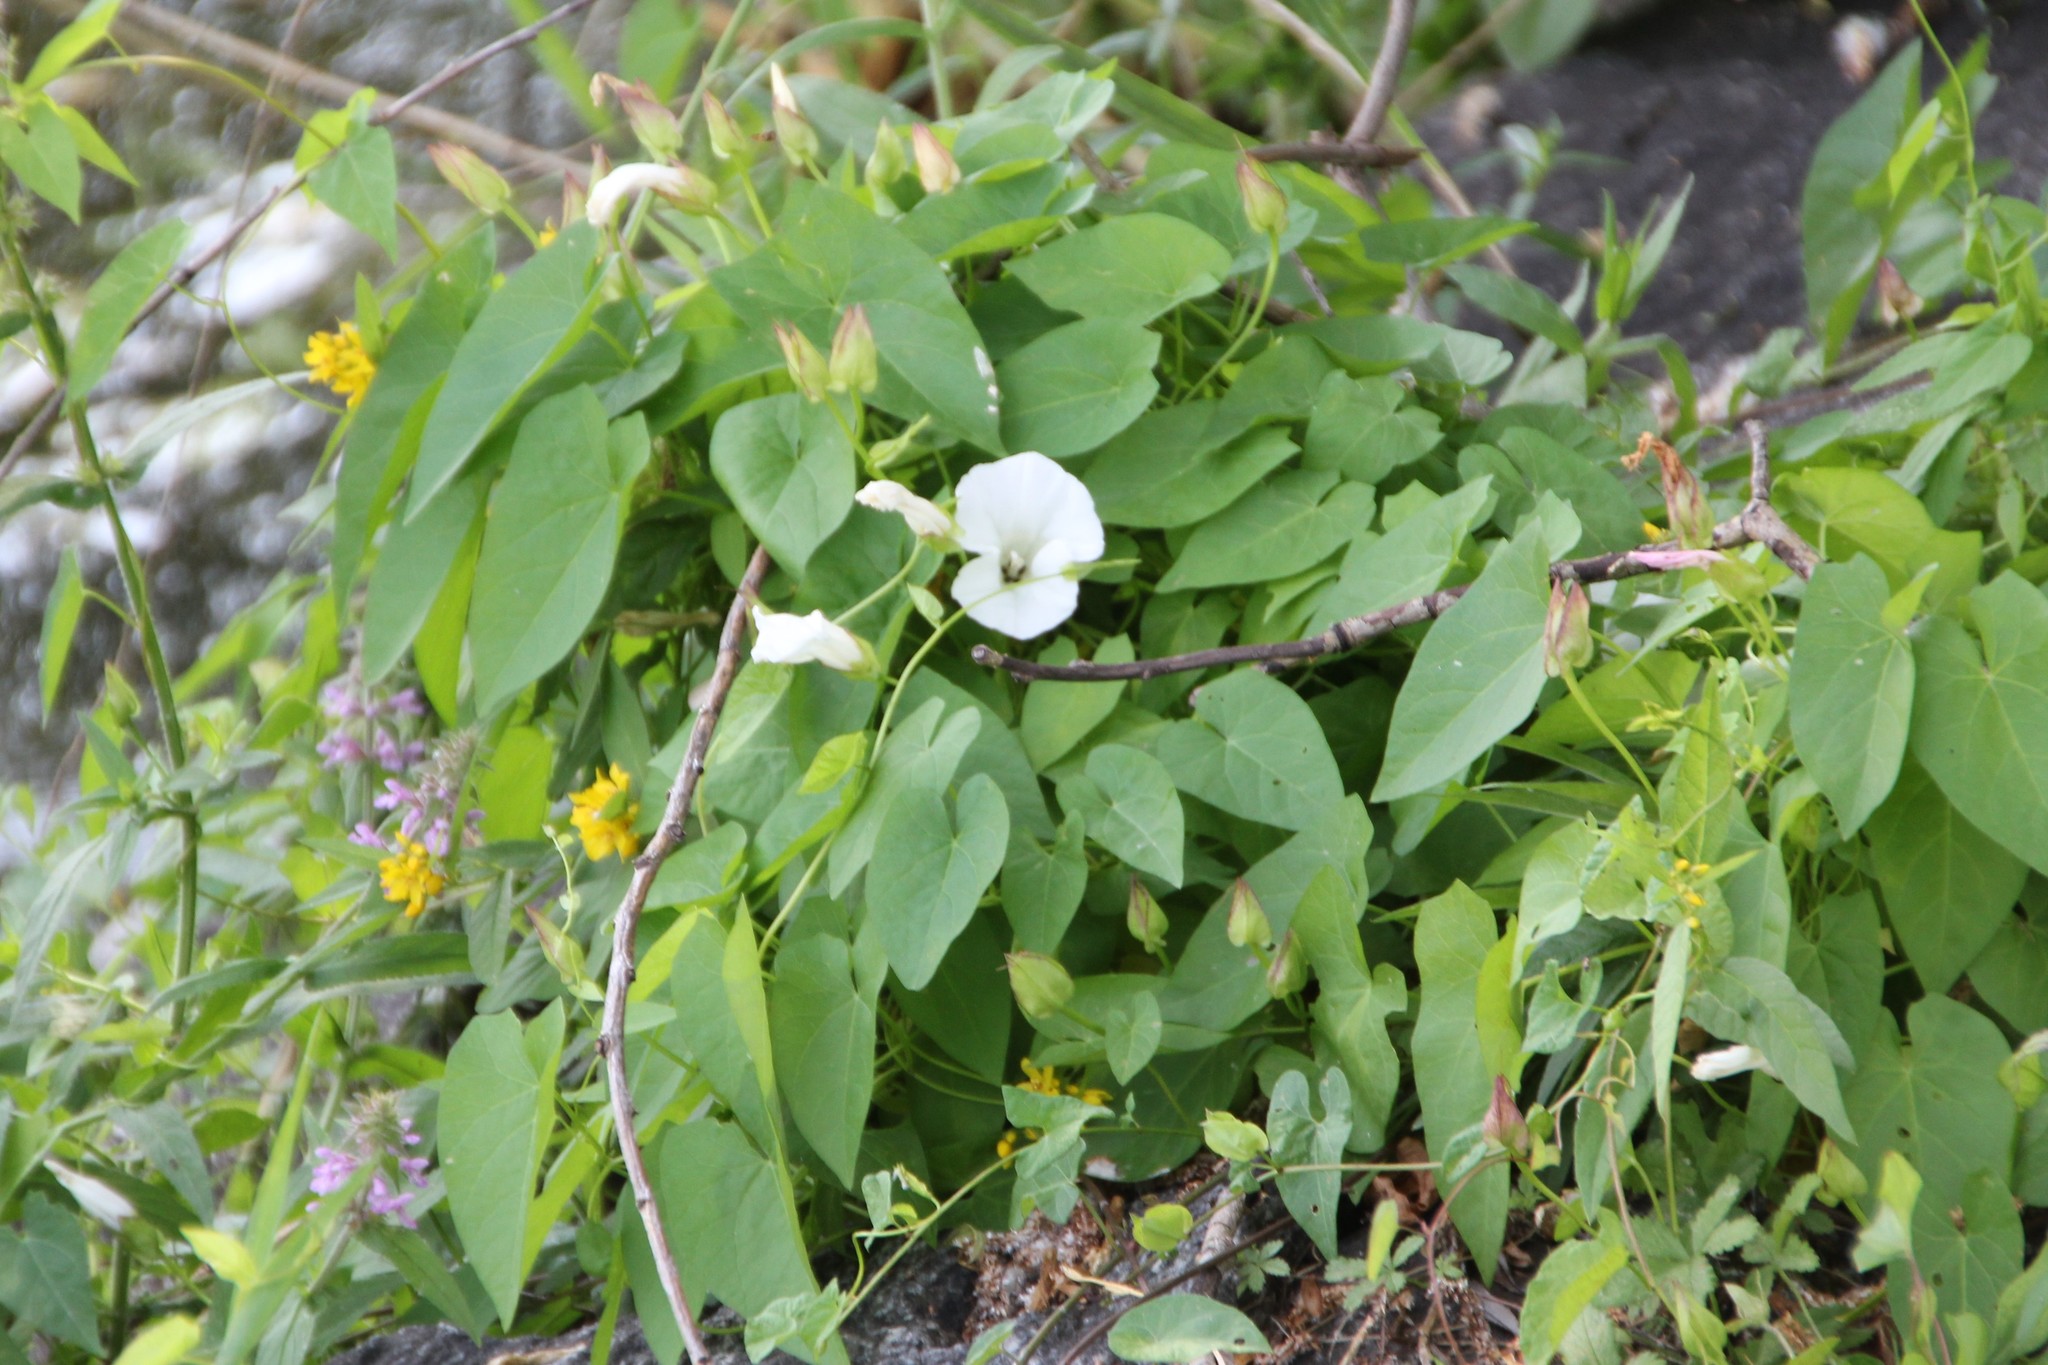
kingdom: Plantae
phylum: Tracheophyta
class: Magnoliopsida
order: Solanales
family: Convolvulaceae
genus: Calystegia
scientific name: Calystegia sepium
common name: Hedge bindweed
